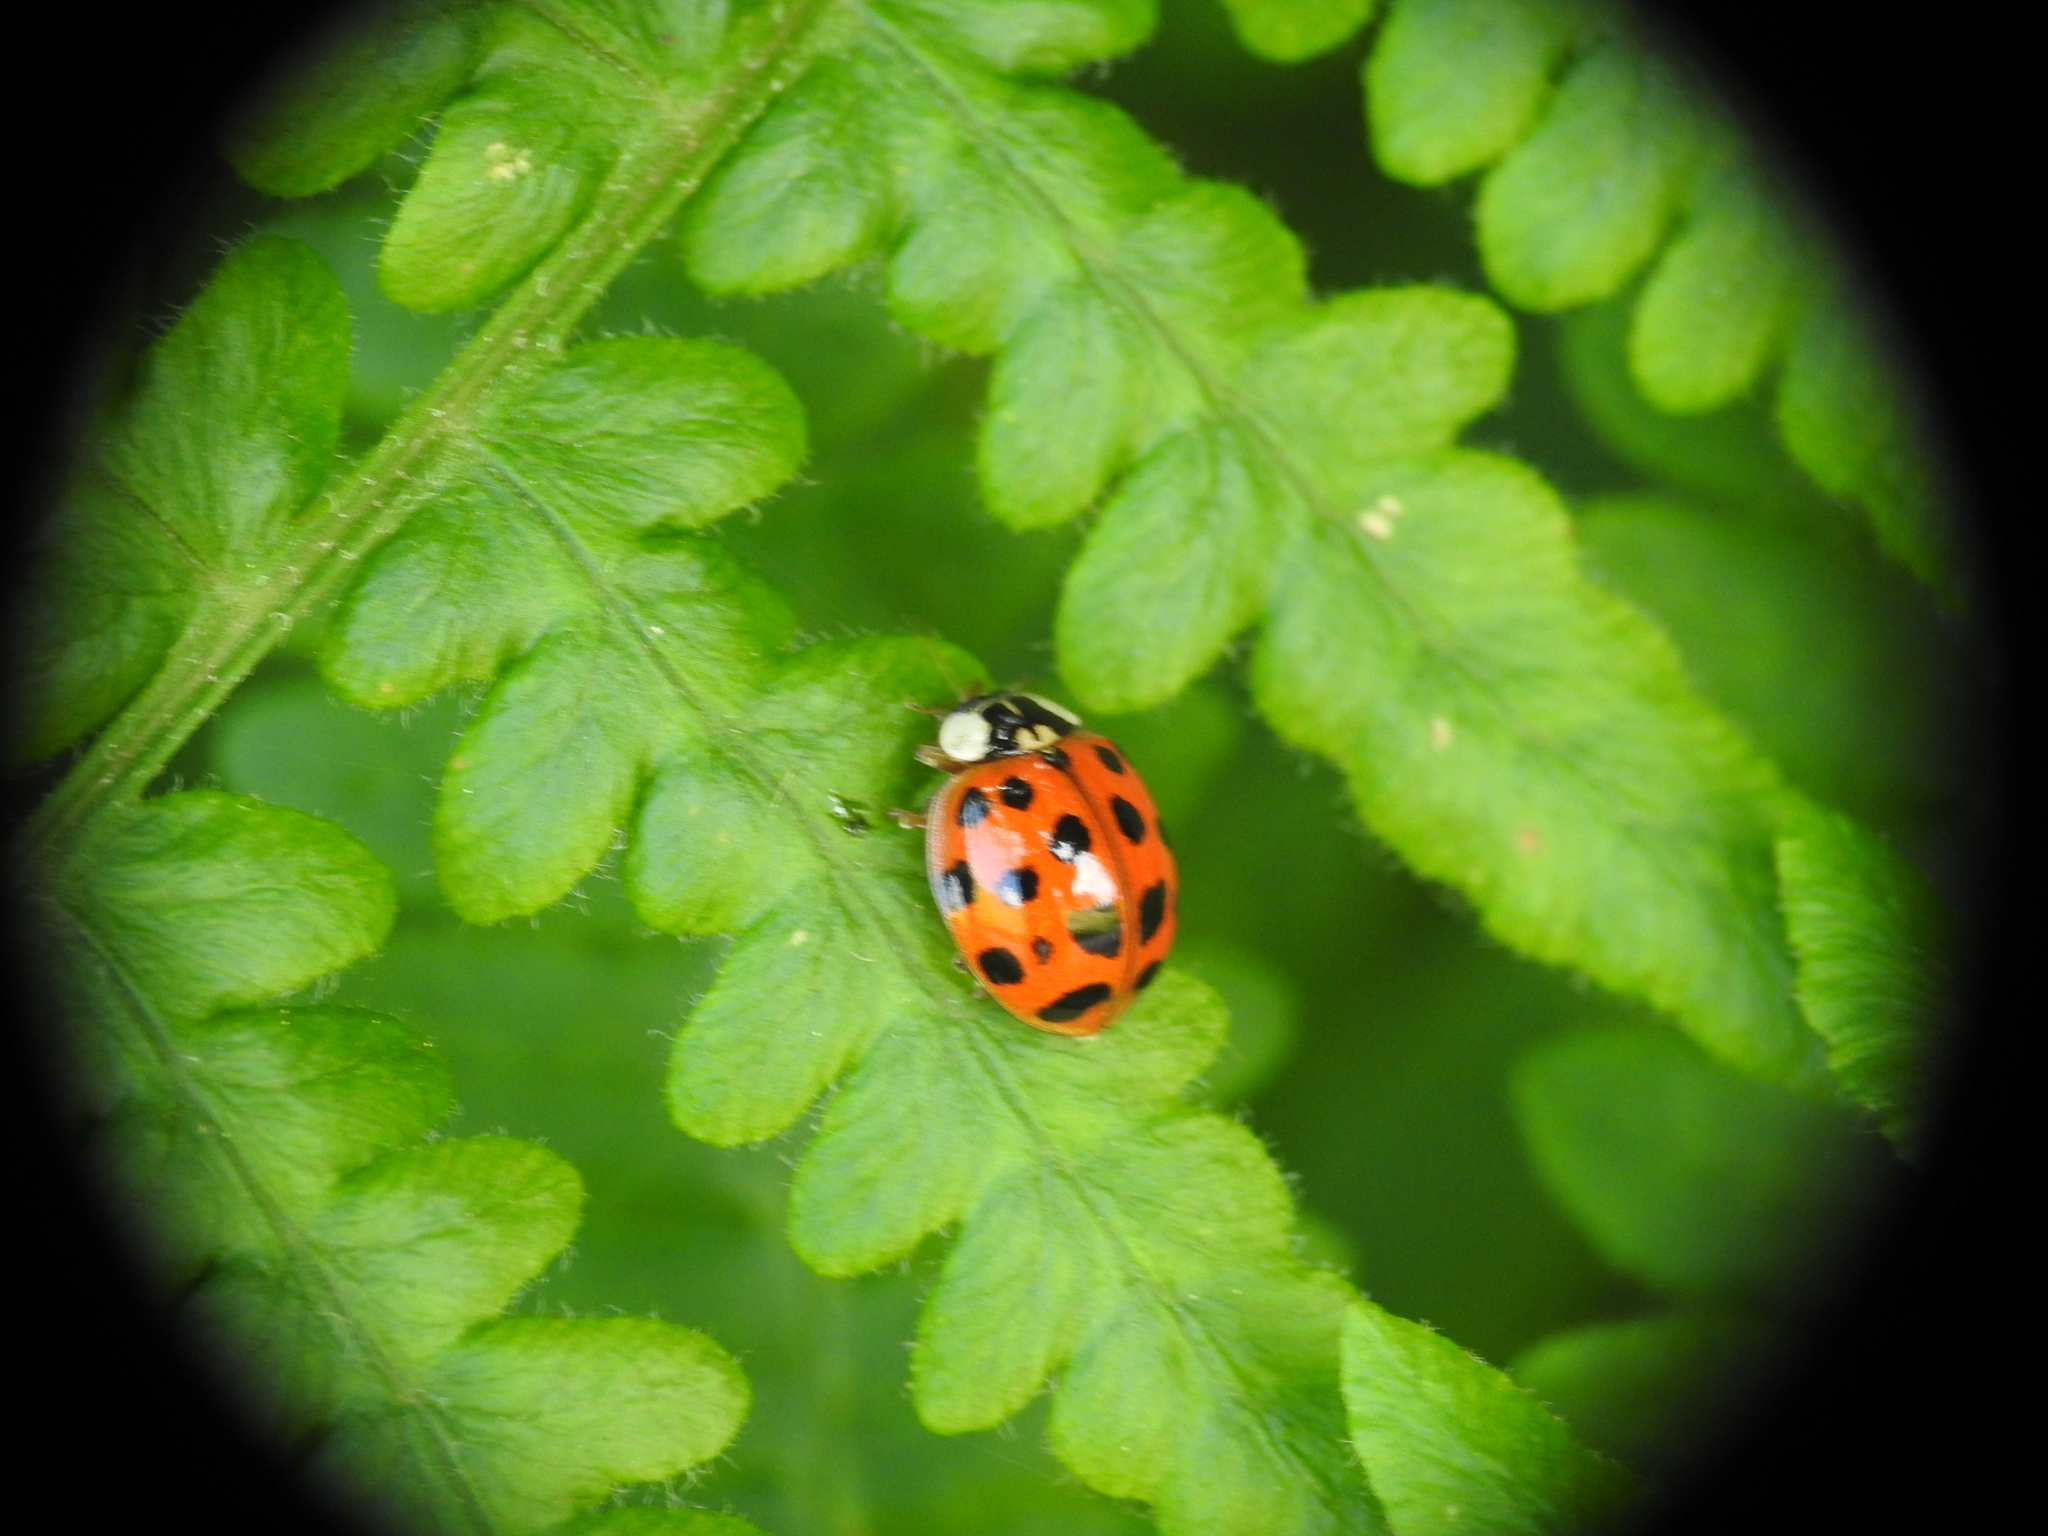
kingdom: Animalia
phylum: Arthropoda
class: Insecta
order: Coleoptera
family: Coccinellidae
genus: Harmonia
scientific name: Harmonia axyridis
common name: Harlequin ladybird
